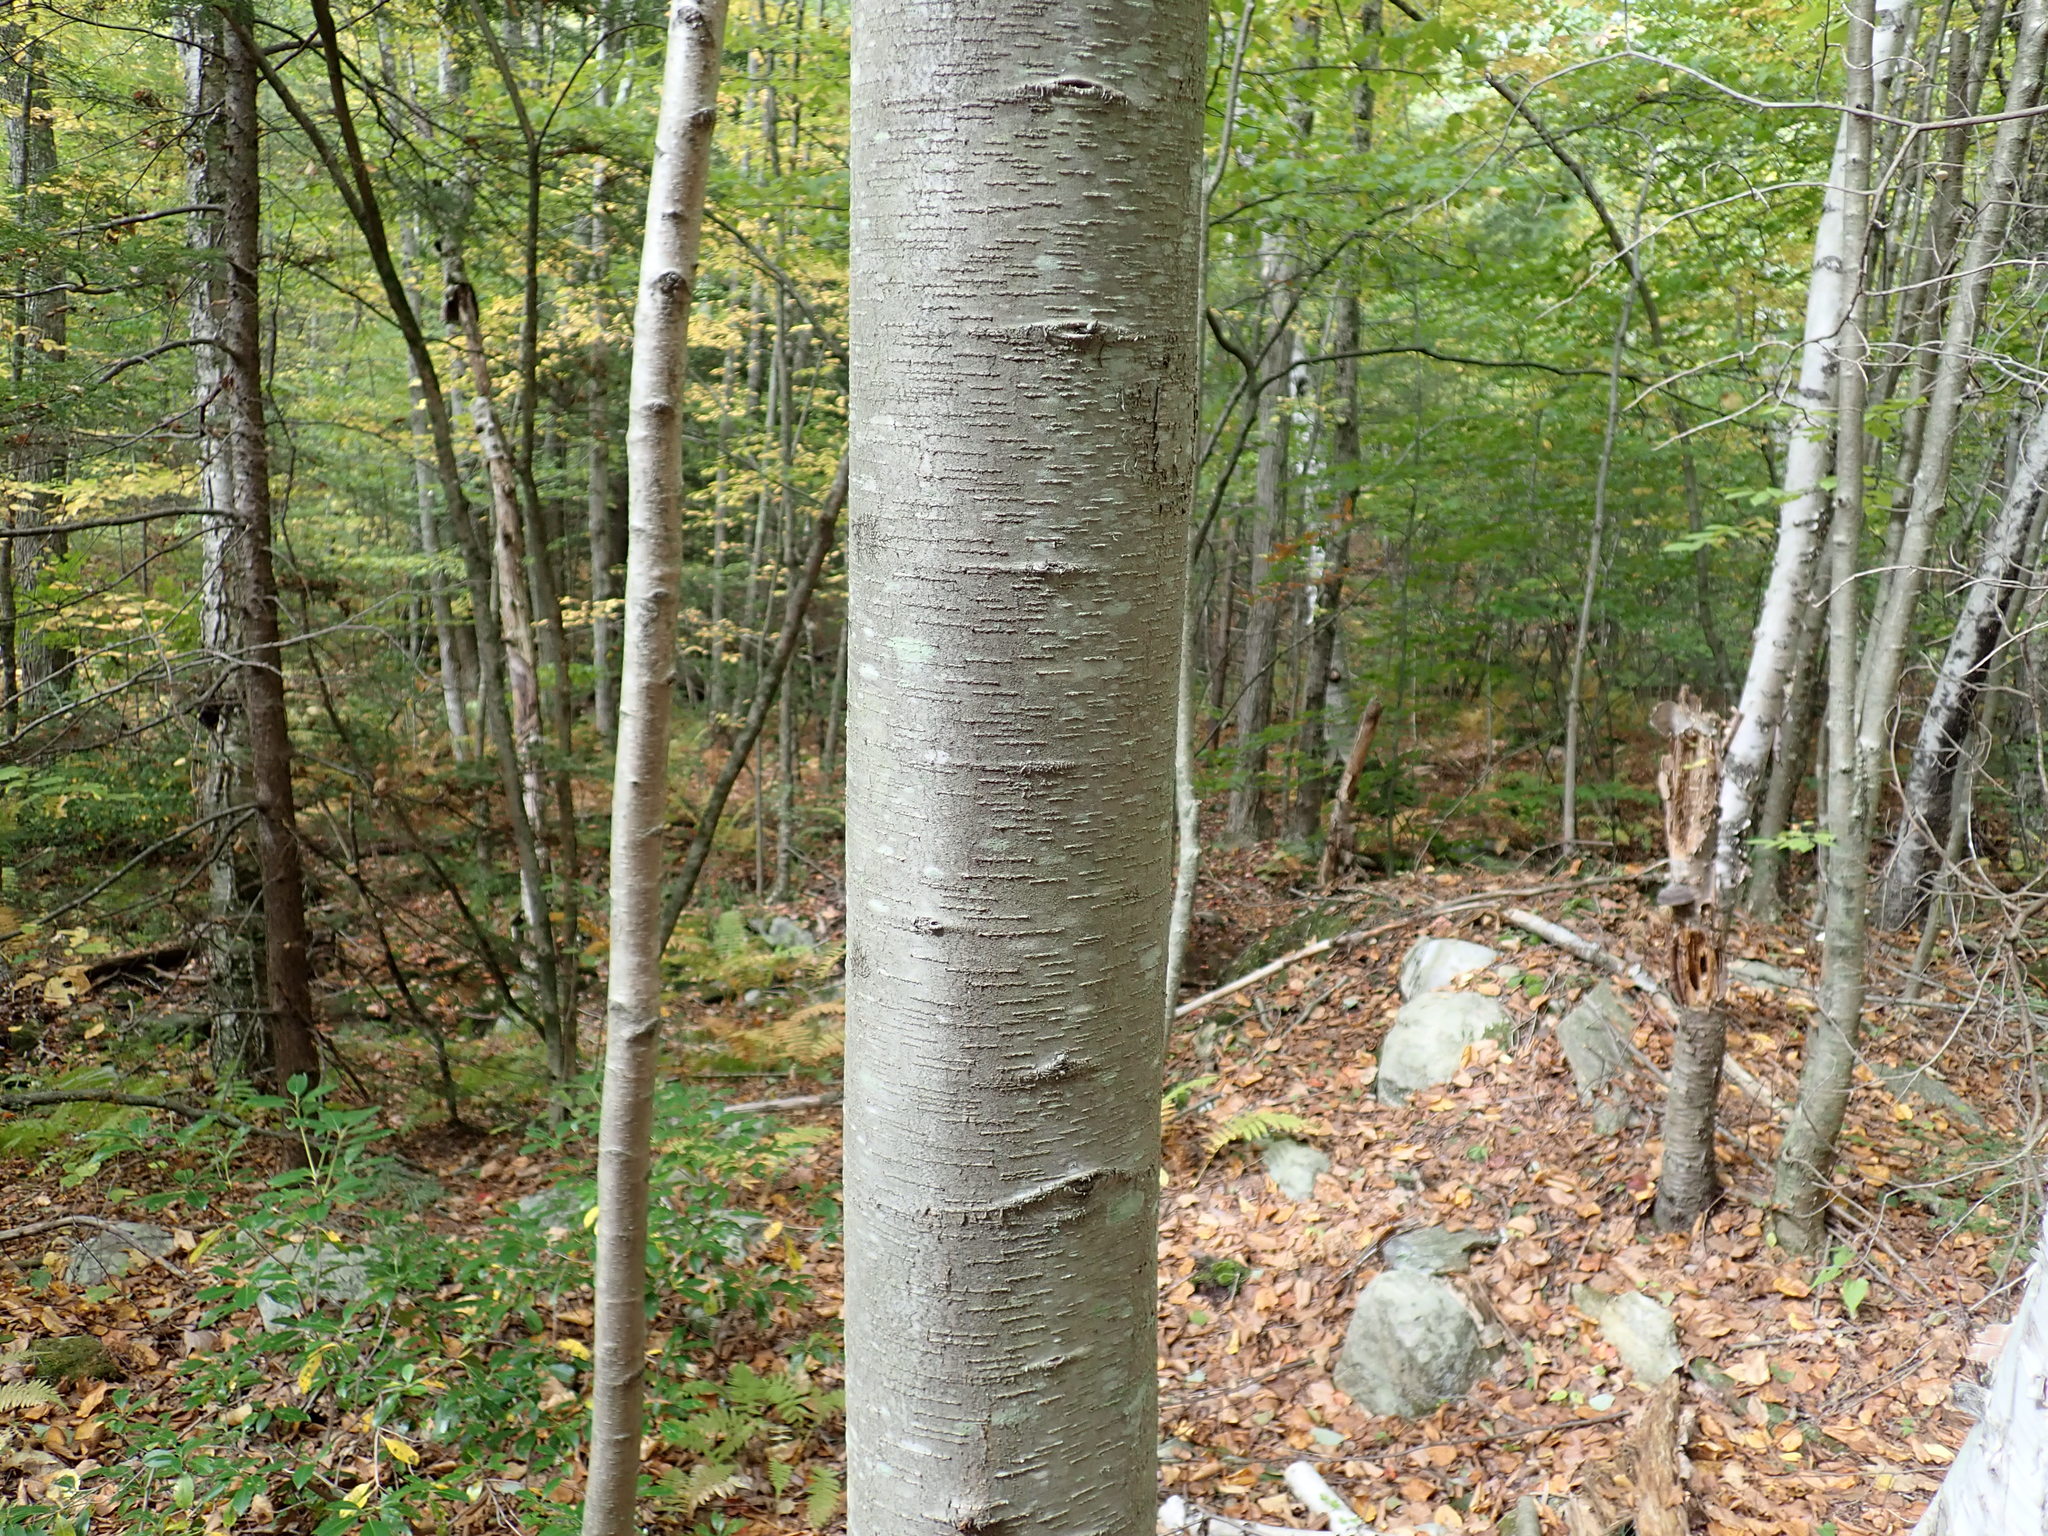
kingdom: Plantae
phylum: Tracheophyta
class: Magnoliopsida
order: Fagales
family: Betulaceae
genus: Betula
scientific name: Betula lenta
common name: Black birch
